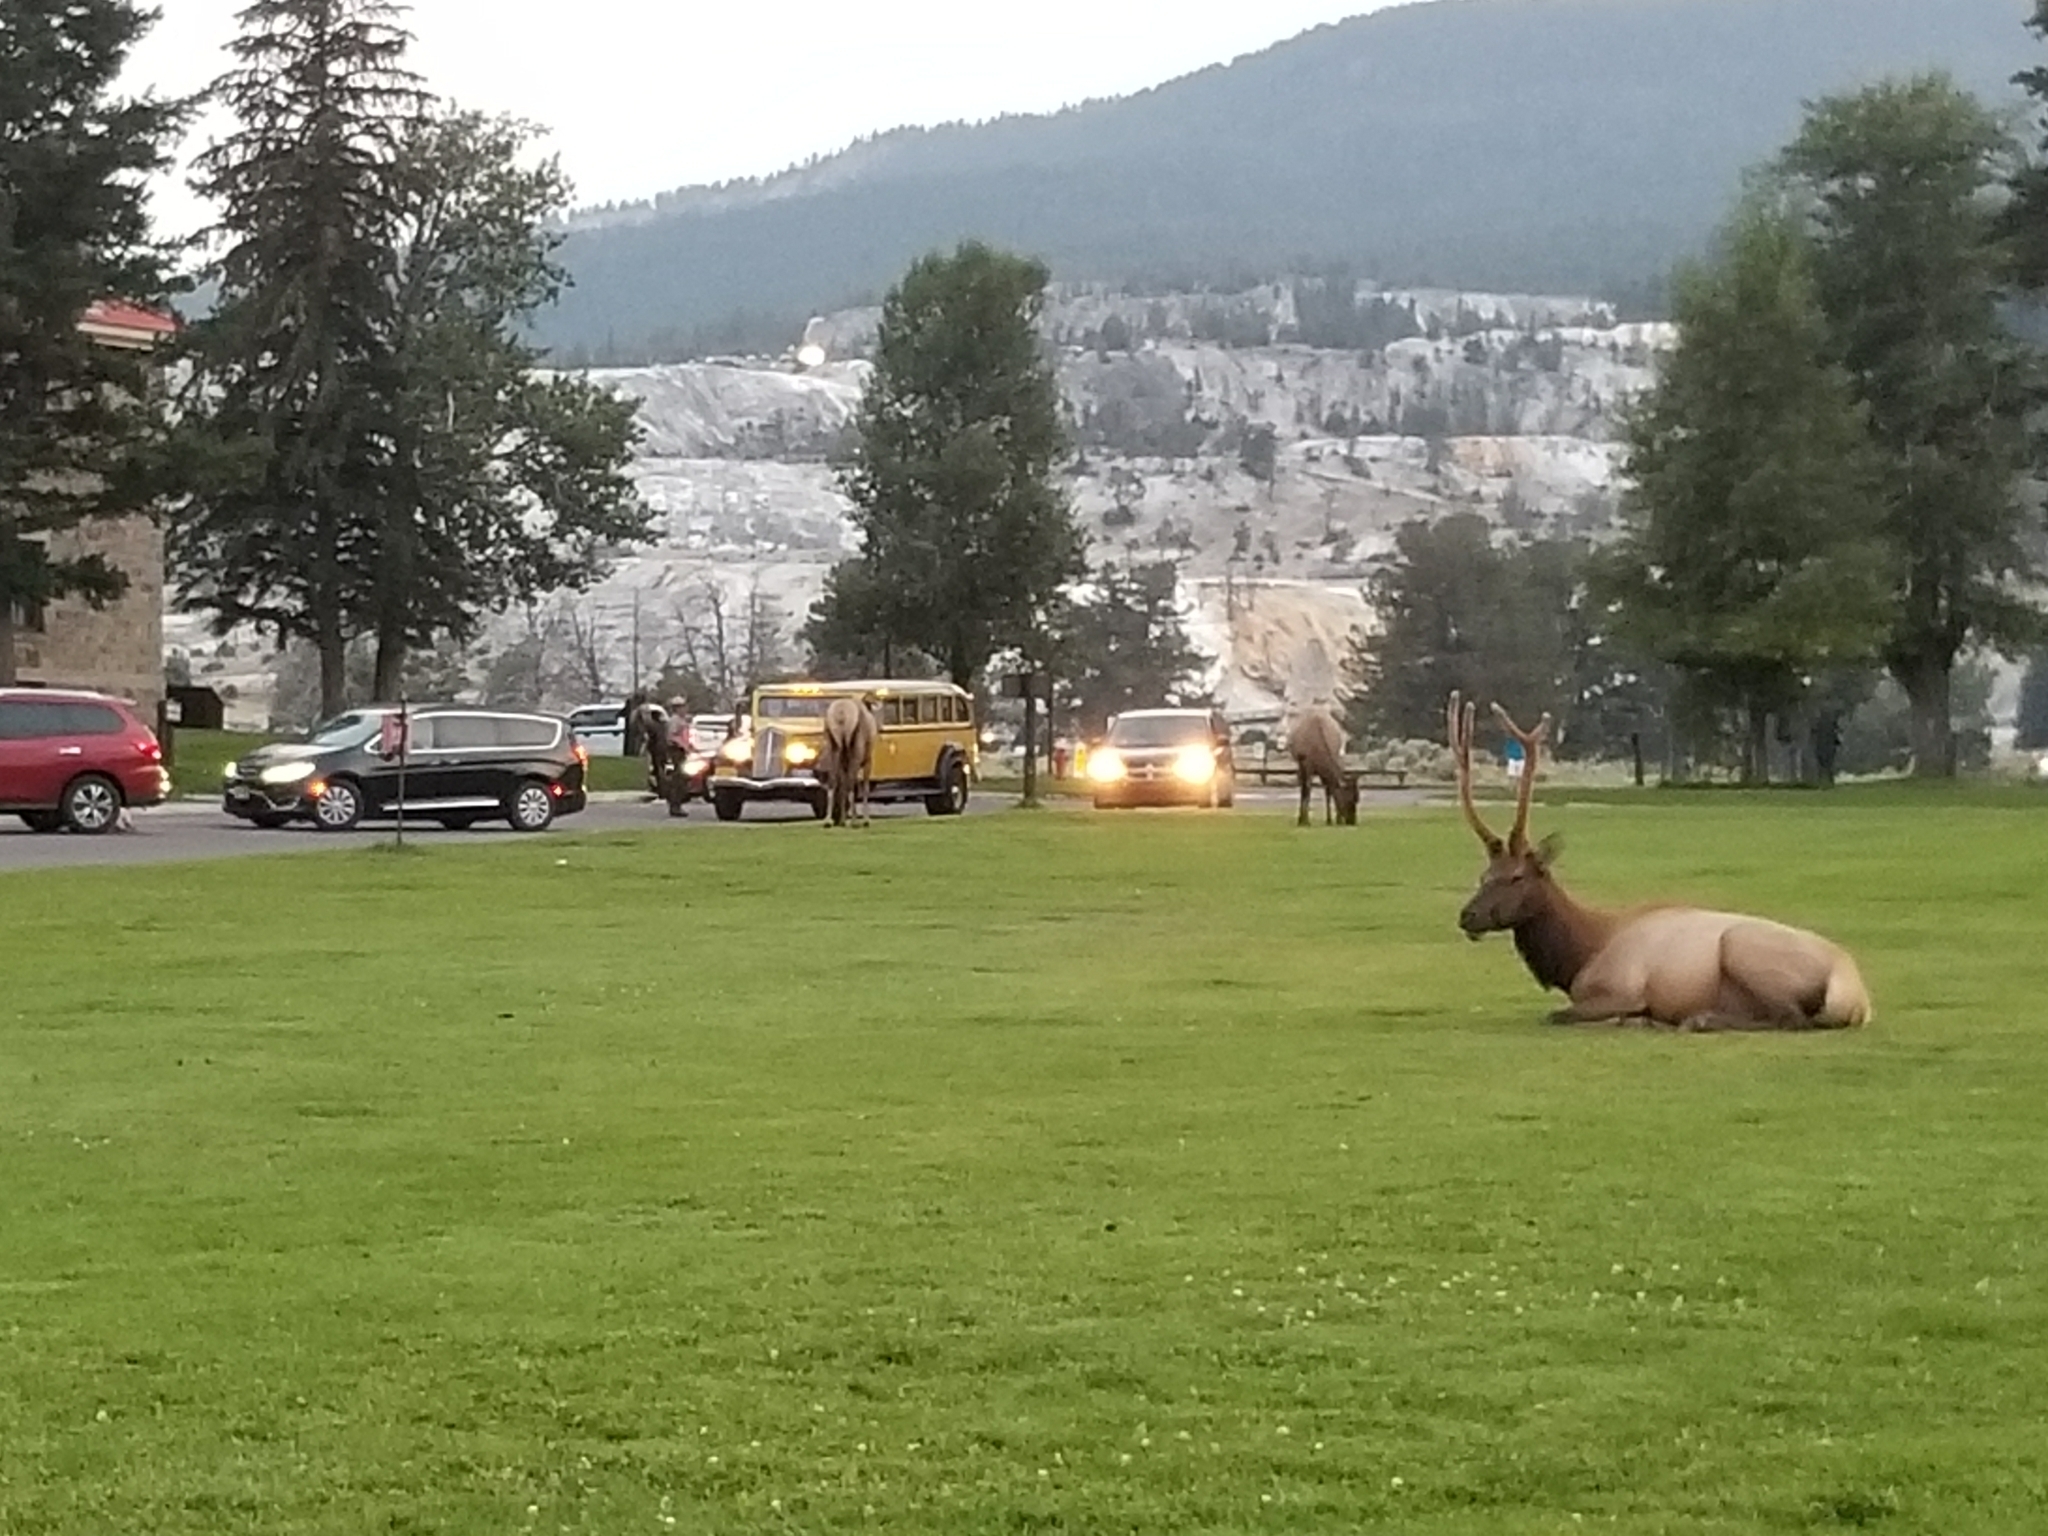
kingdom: Animalia
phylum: Chordata
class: Mammalia
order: Artiodactyla
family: Cervidae
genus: Cervus
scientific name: Cervus elaphus
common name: Red deer
